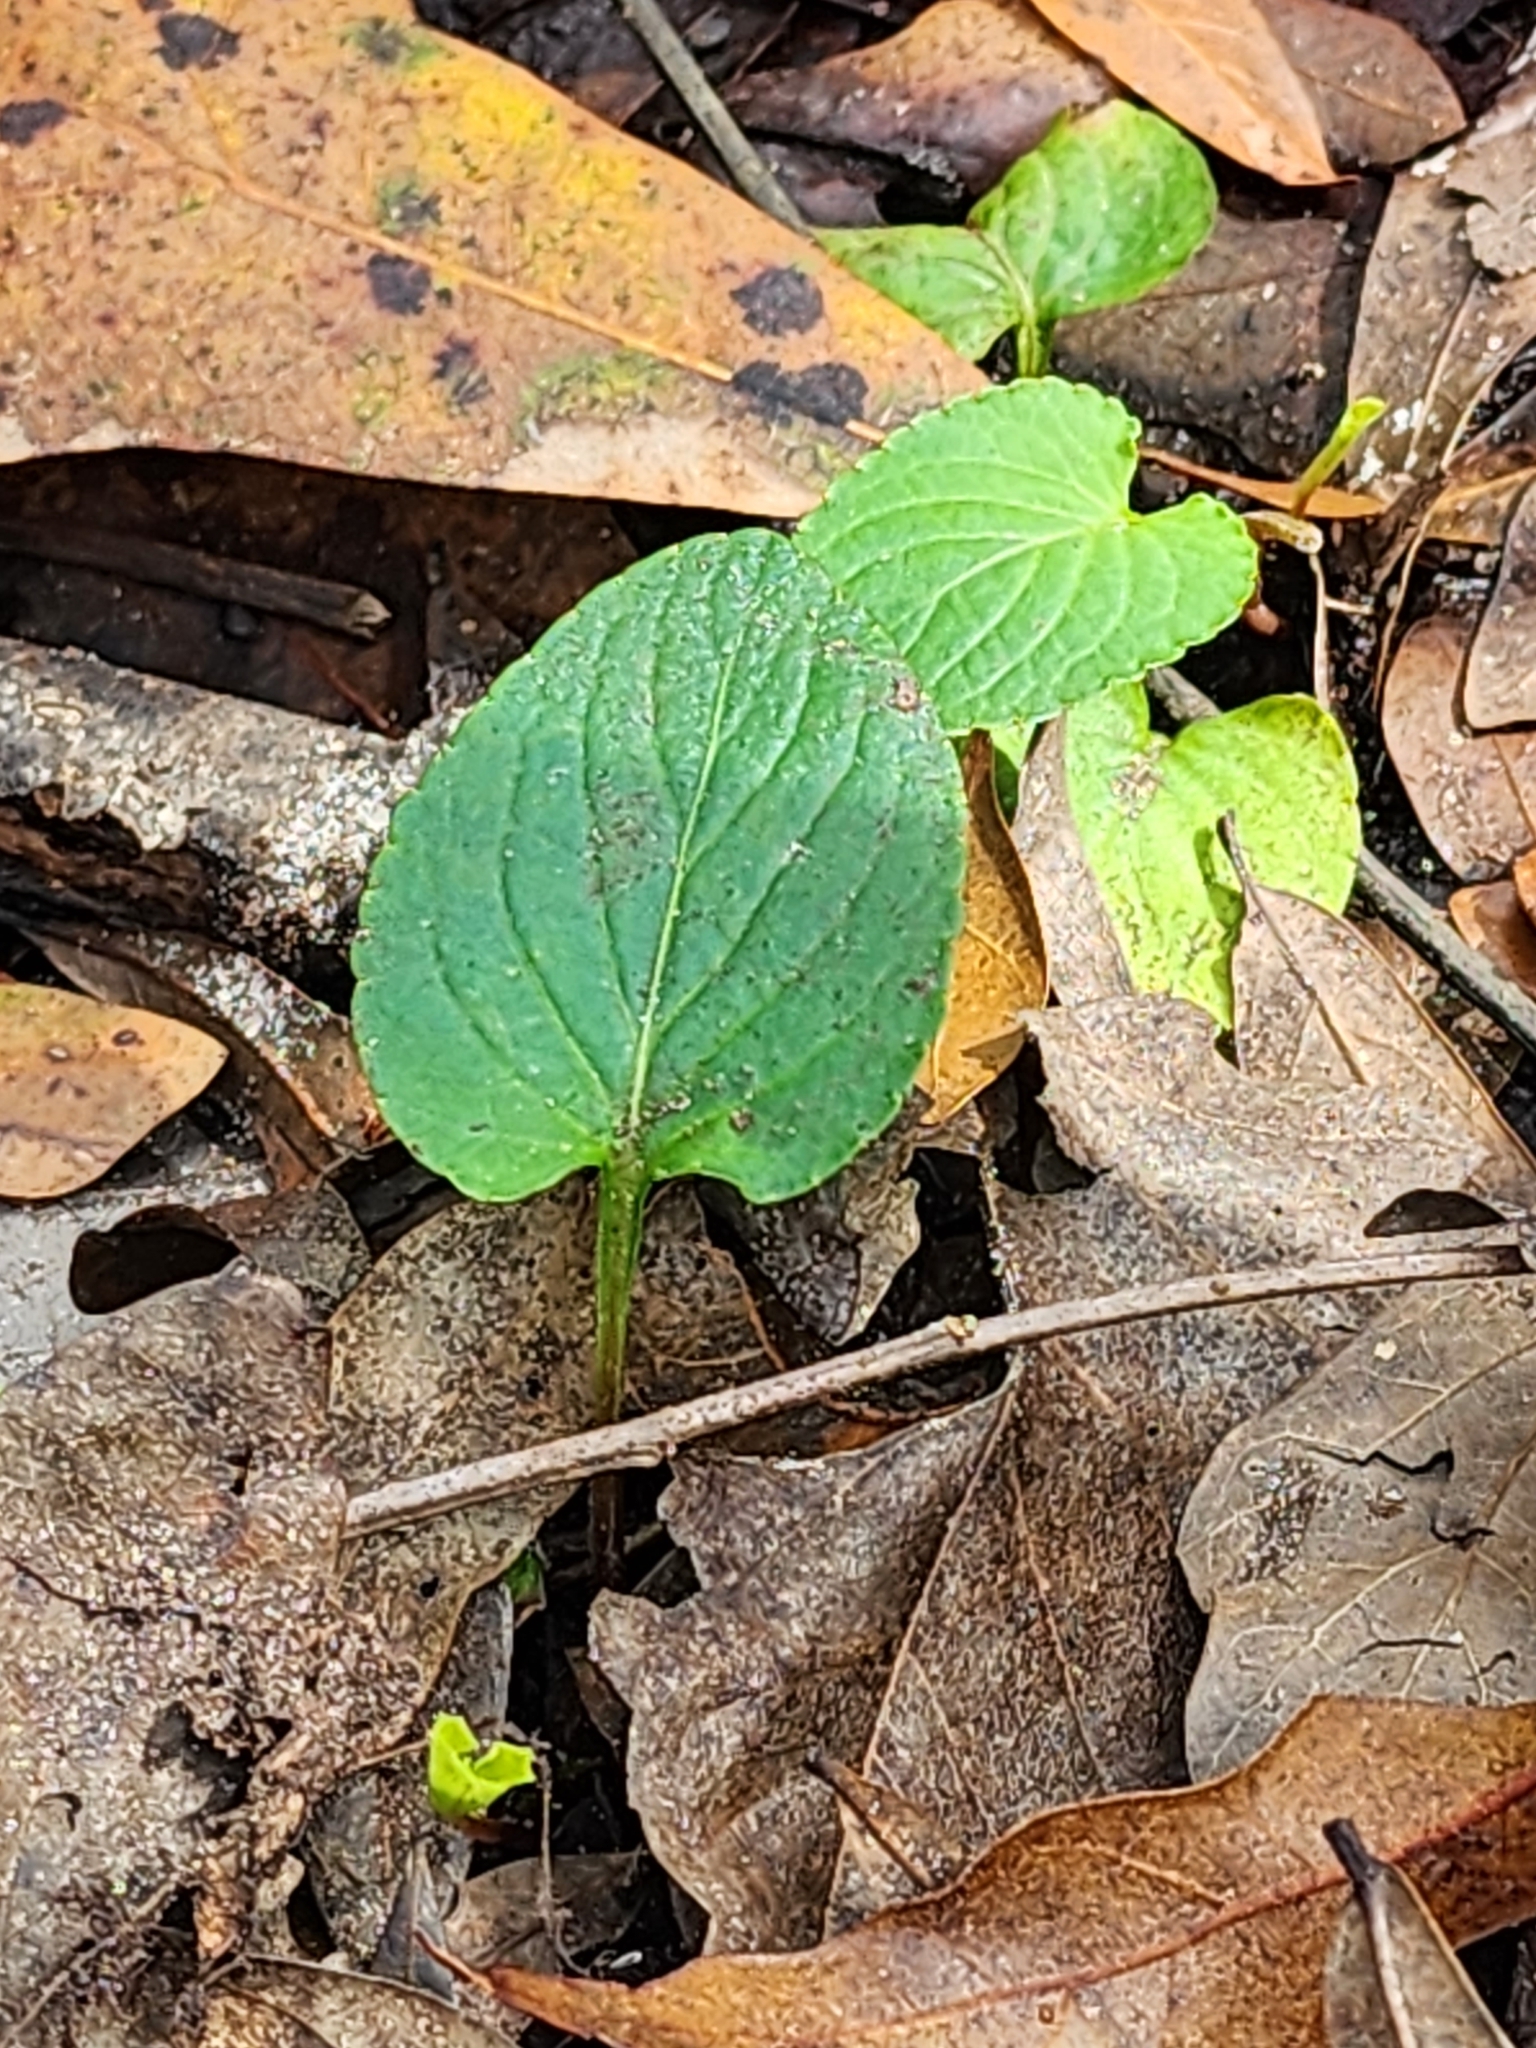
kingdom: Plantae
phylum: Tracheophyta
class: Magnoliopsida
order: Malpighiales
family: Violaceae
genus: Viola
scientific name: Viola primulifolia
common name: Primrose-leaf violet
